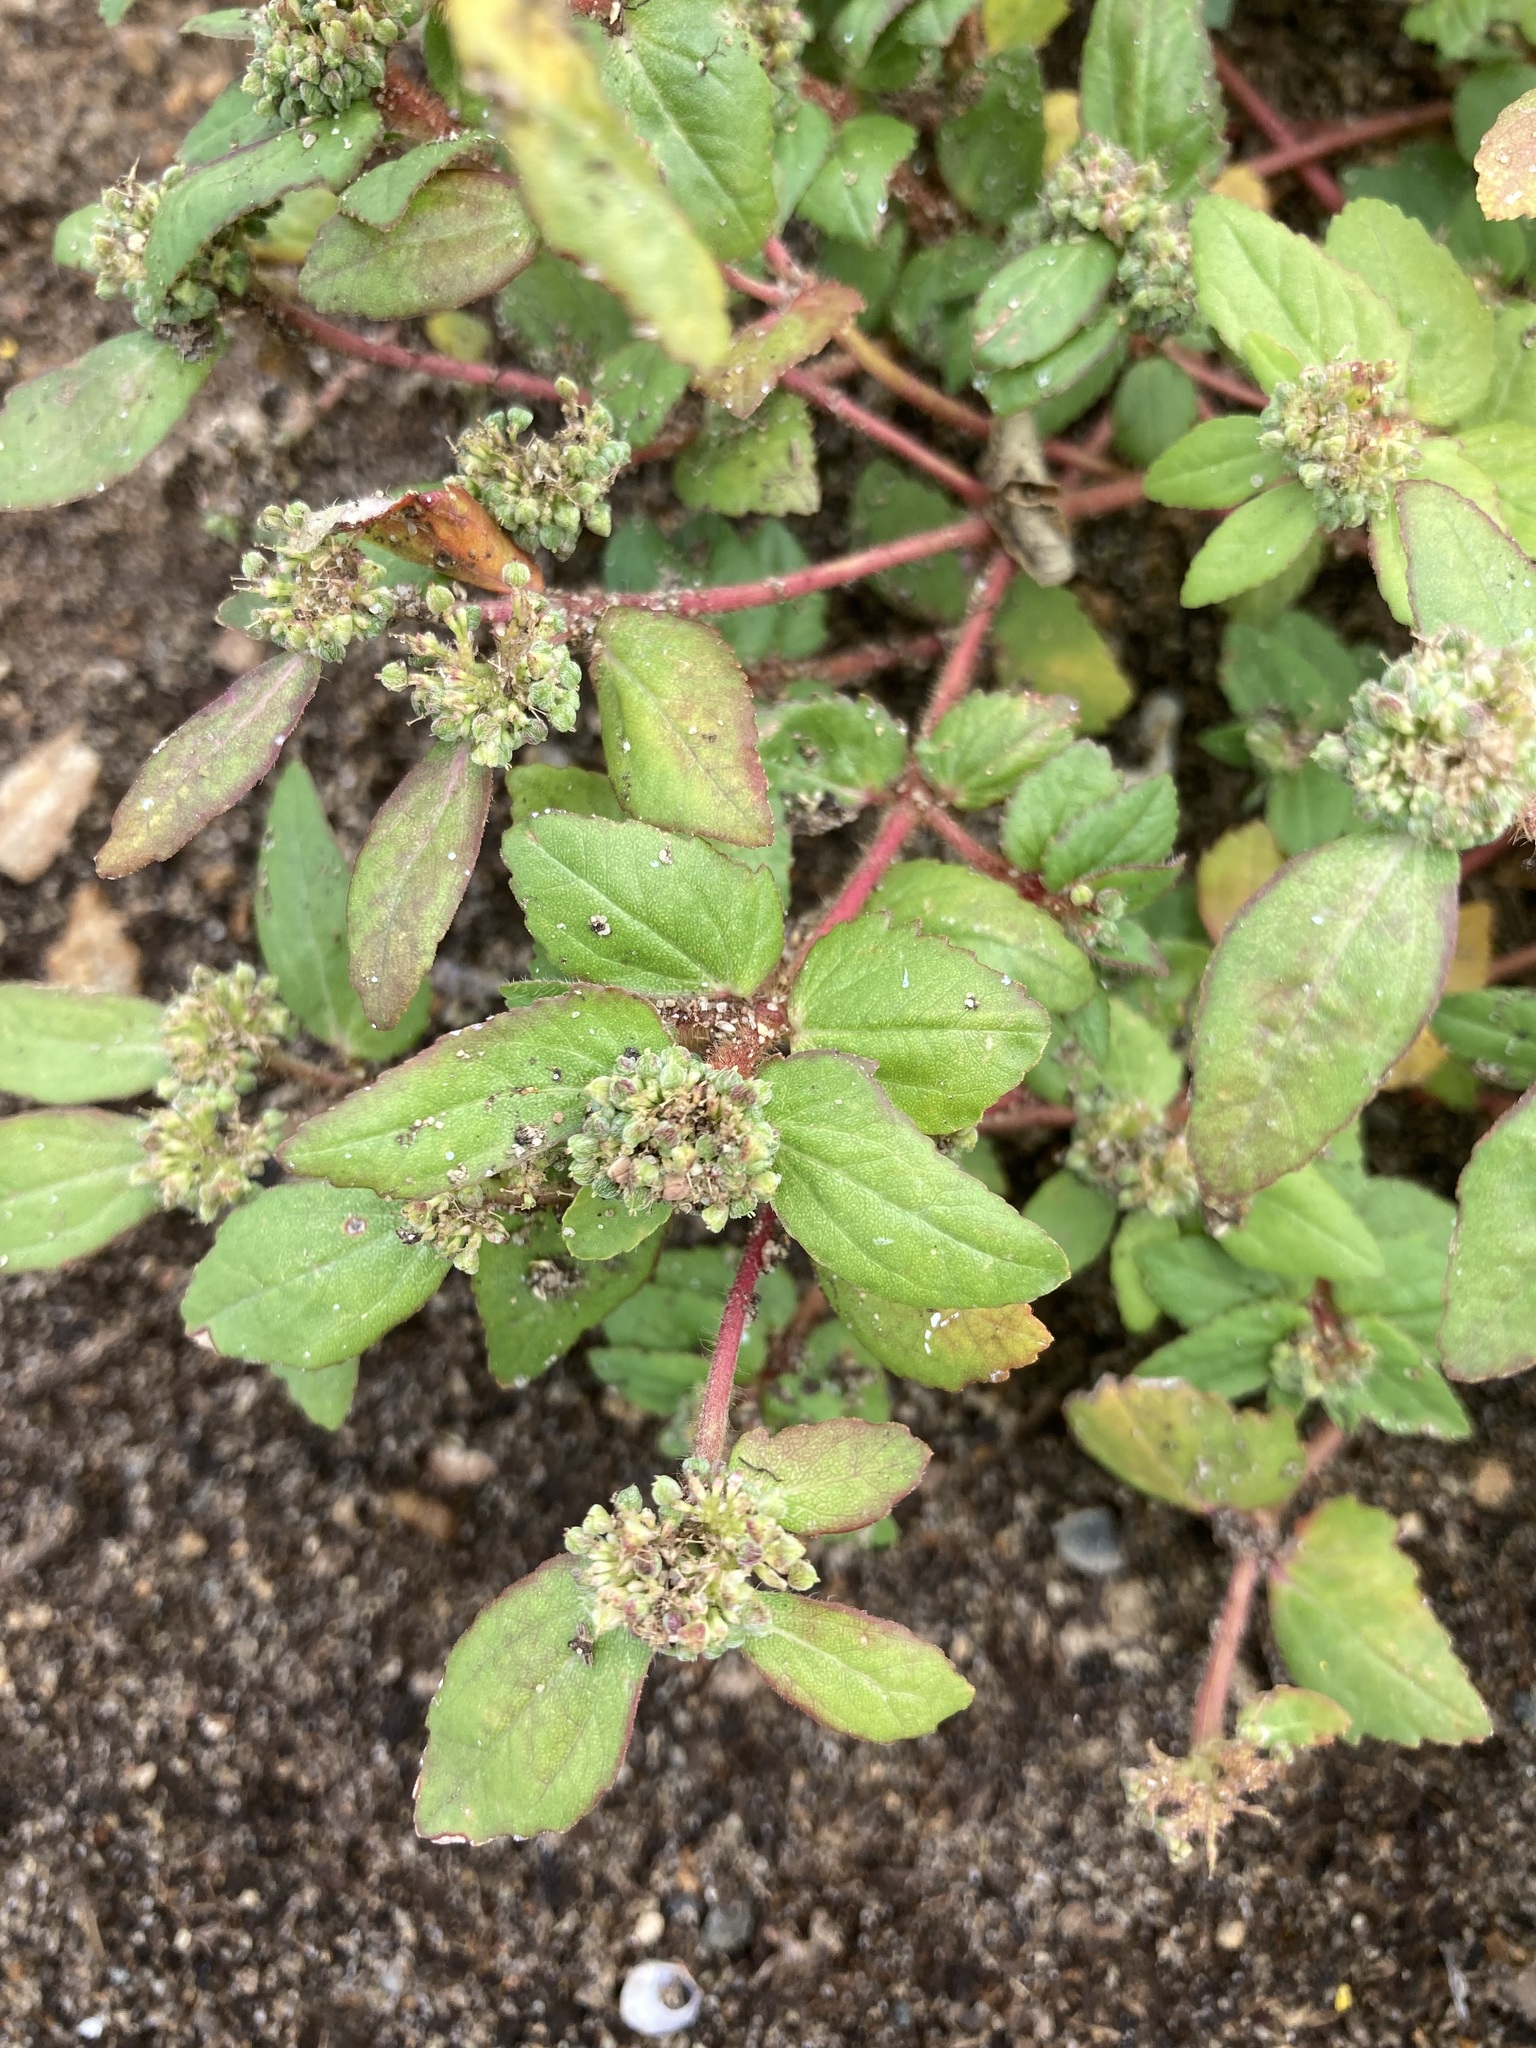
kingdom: Plantae
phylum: Tracheophyta
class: Magnoliopsida
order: Malpighiales
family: Euphorbiaceae
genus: Euphorbia
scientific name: Euphorbia ophthalmica
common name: Florida hammock sandmat
